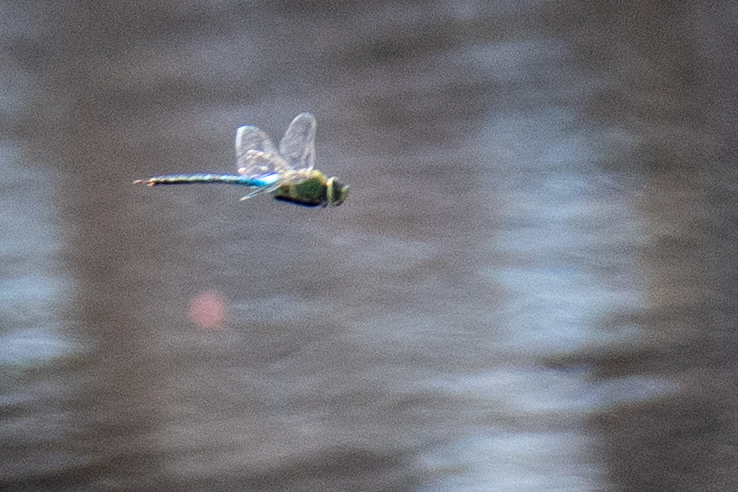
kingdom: Animalia
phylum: Arthropoda
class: Insecta
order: Odonata
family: Aeshnidae
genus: Anax
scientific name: Anax junius
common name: Common green darner
